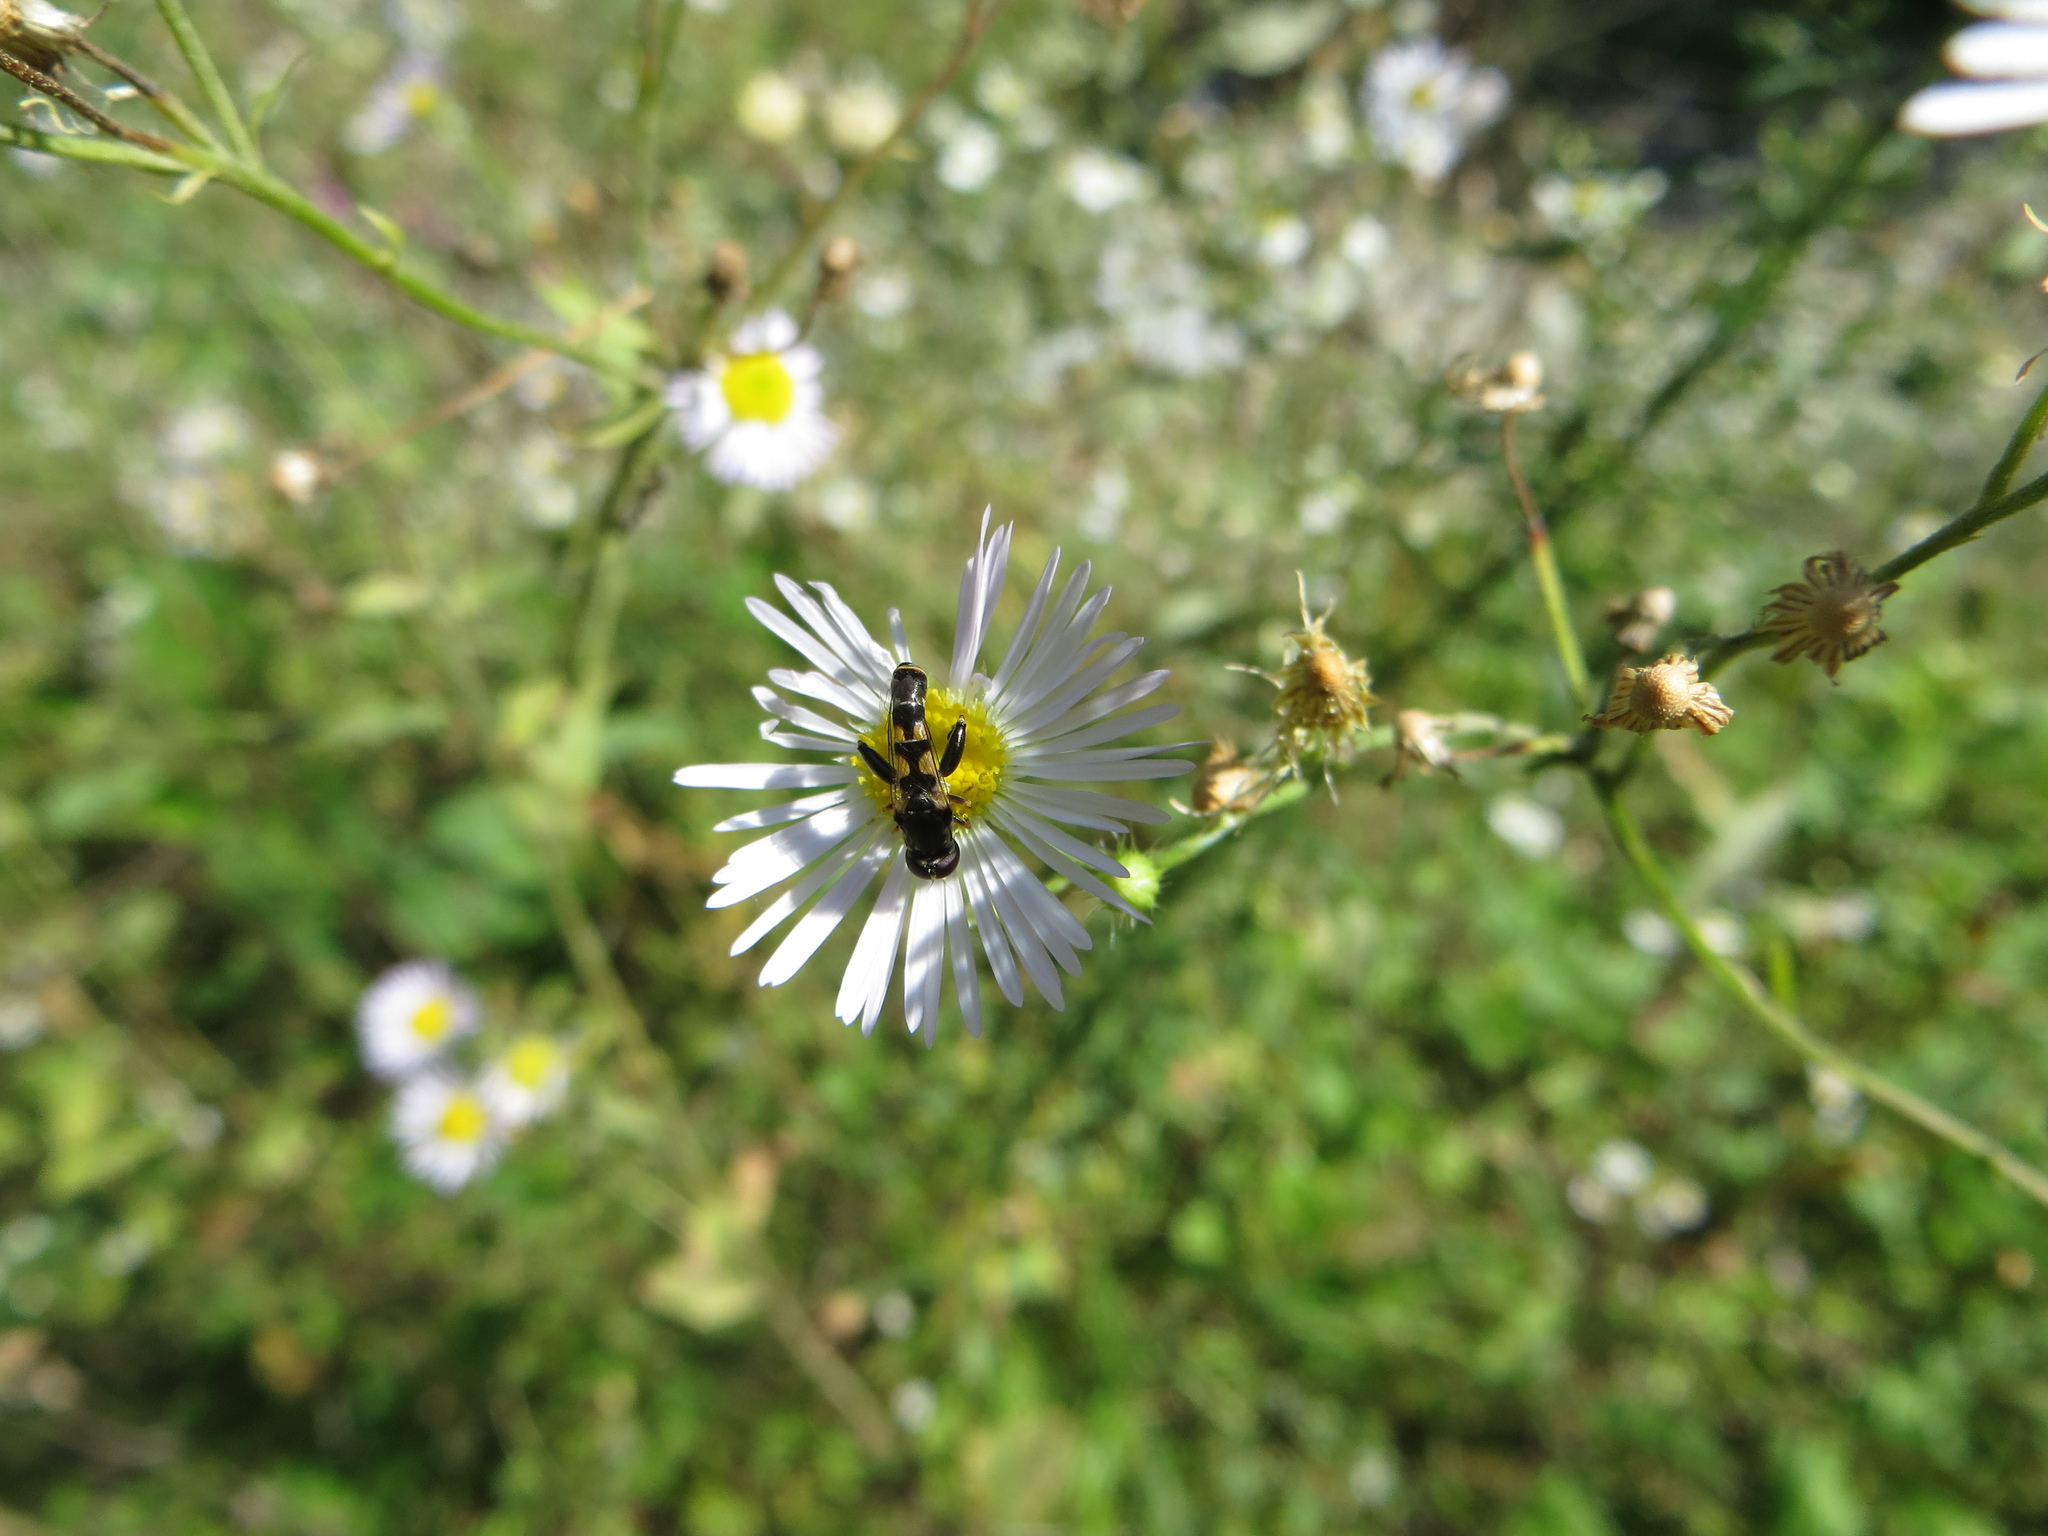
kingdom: Animalia
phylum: Arthropoda
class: Insecta
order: Diptera
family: Syrphidae
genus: Syritta
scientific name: Syritta pipiens
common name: Hover fly
